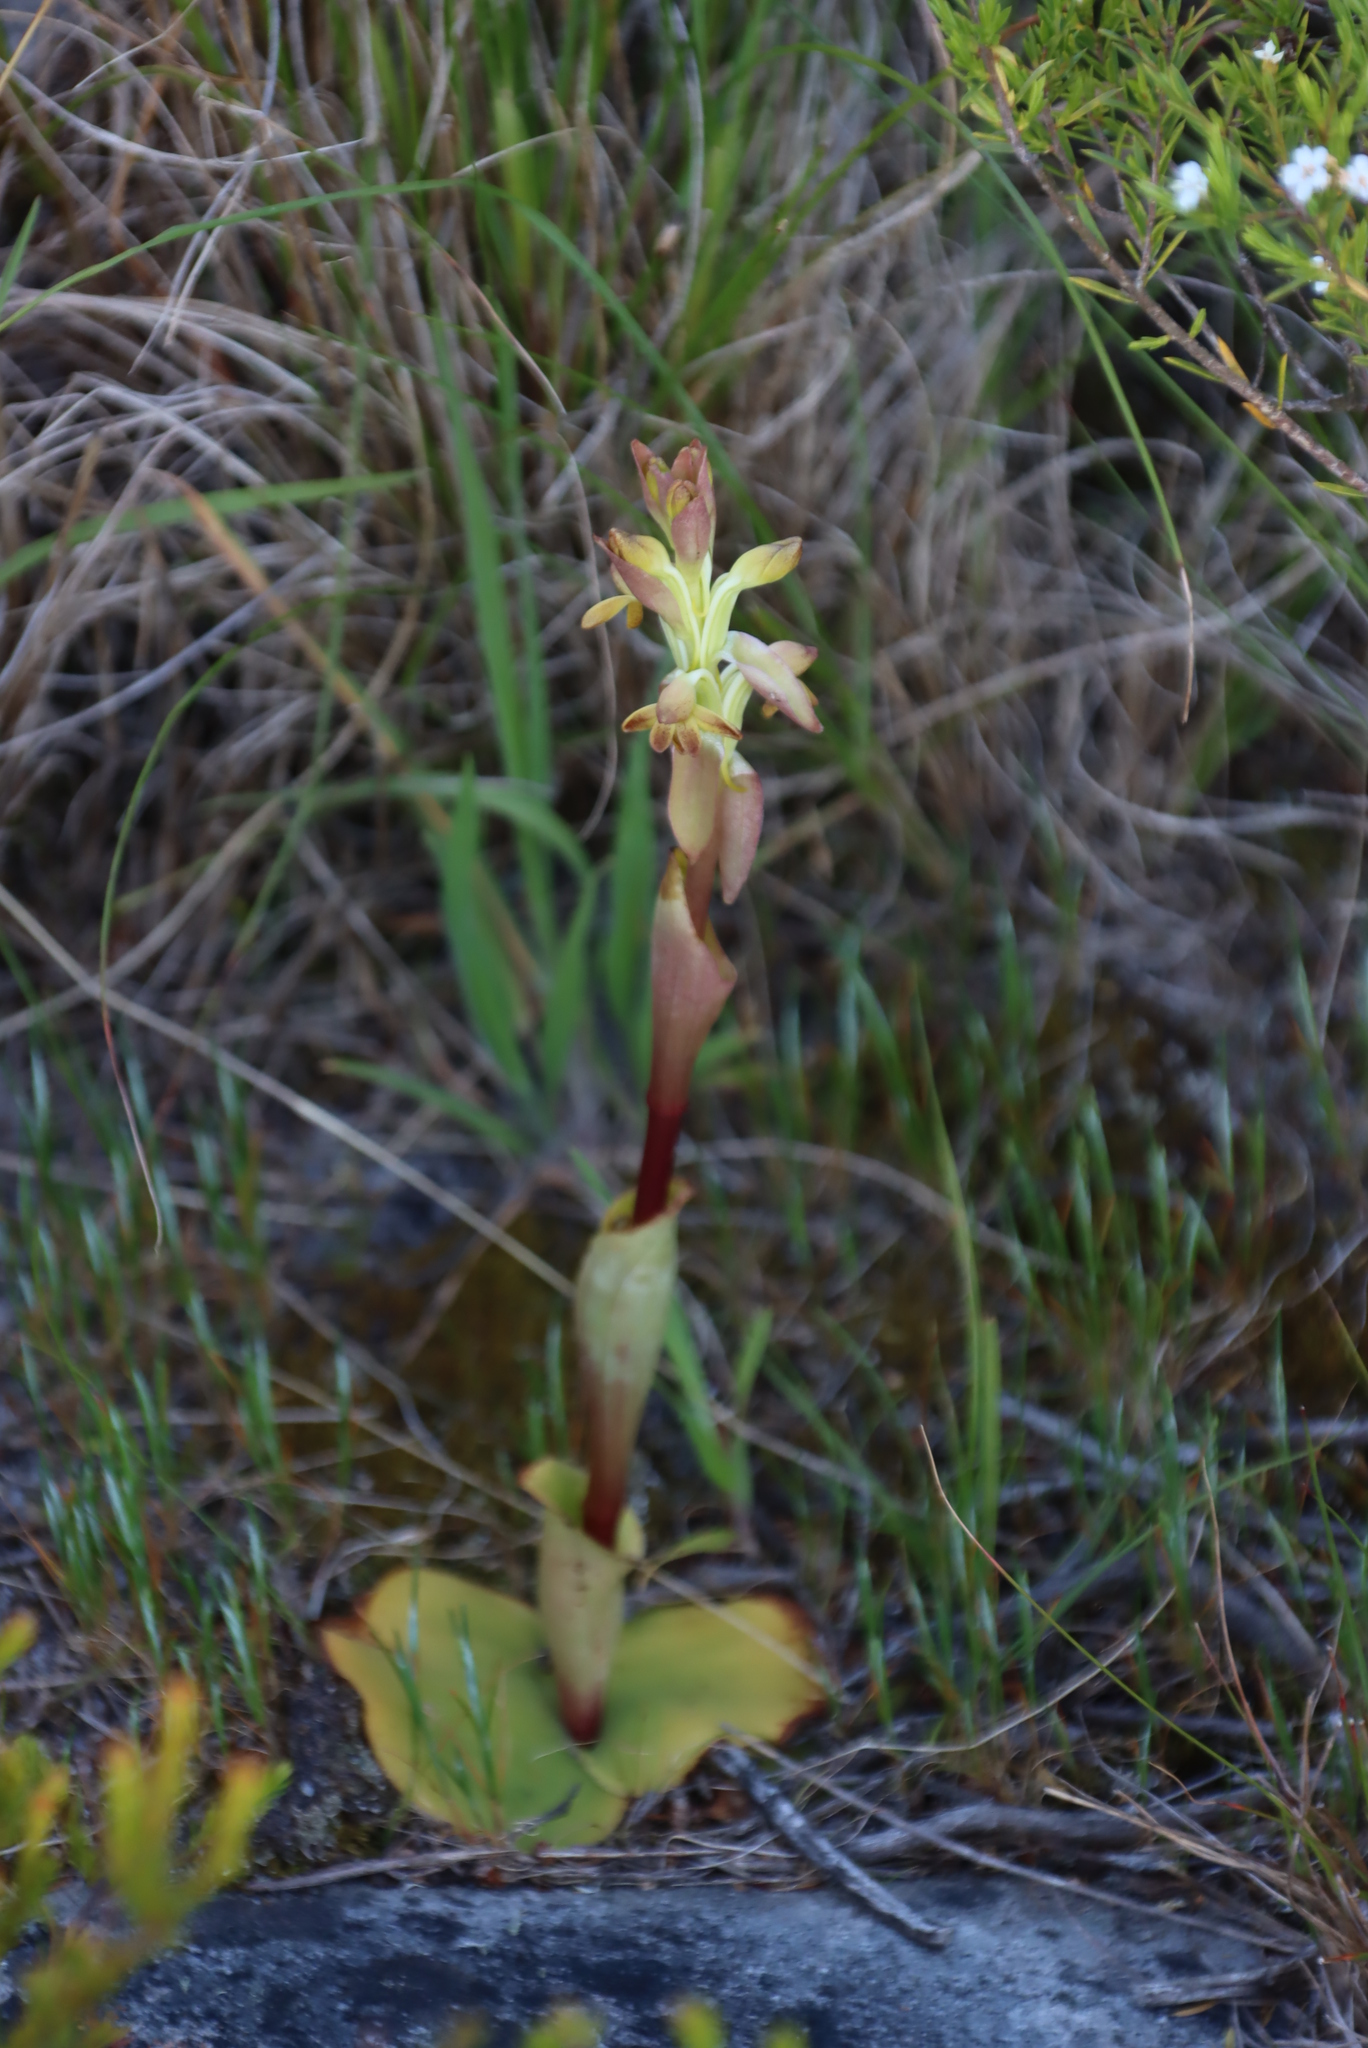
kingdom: Plantae
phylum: Tracheophyta
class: Liliopsida
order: Asparagales
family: Orchidaceae
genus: Satyrium
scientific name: Satyrium bicorne
